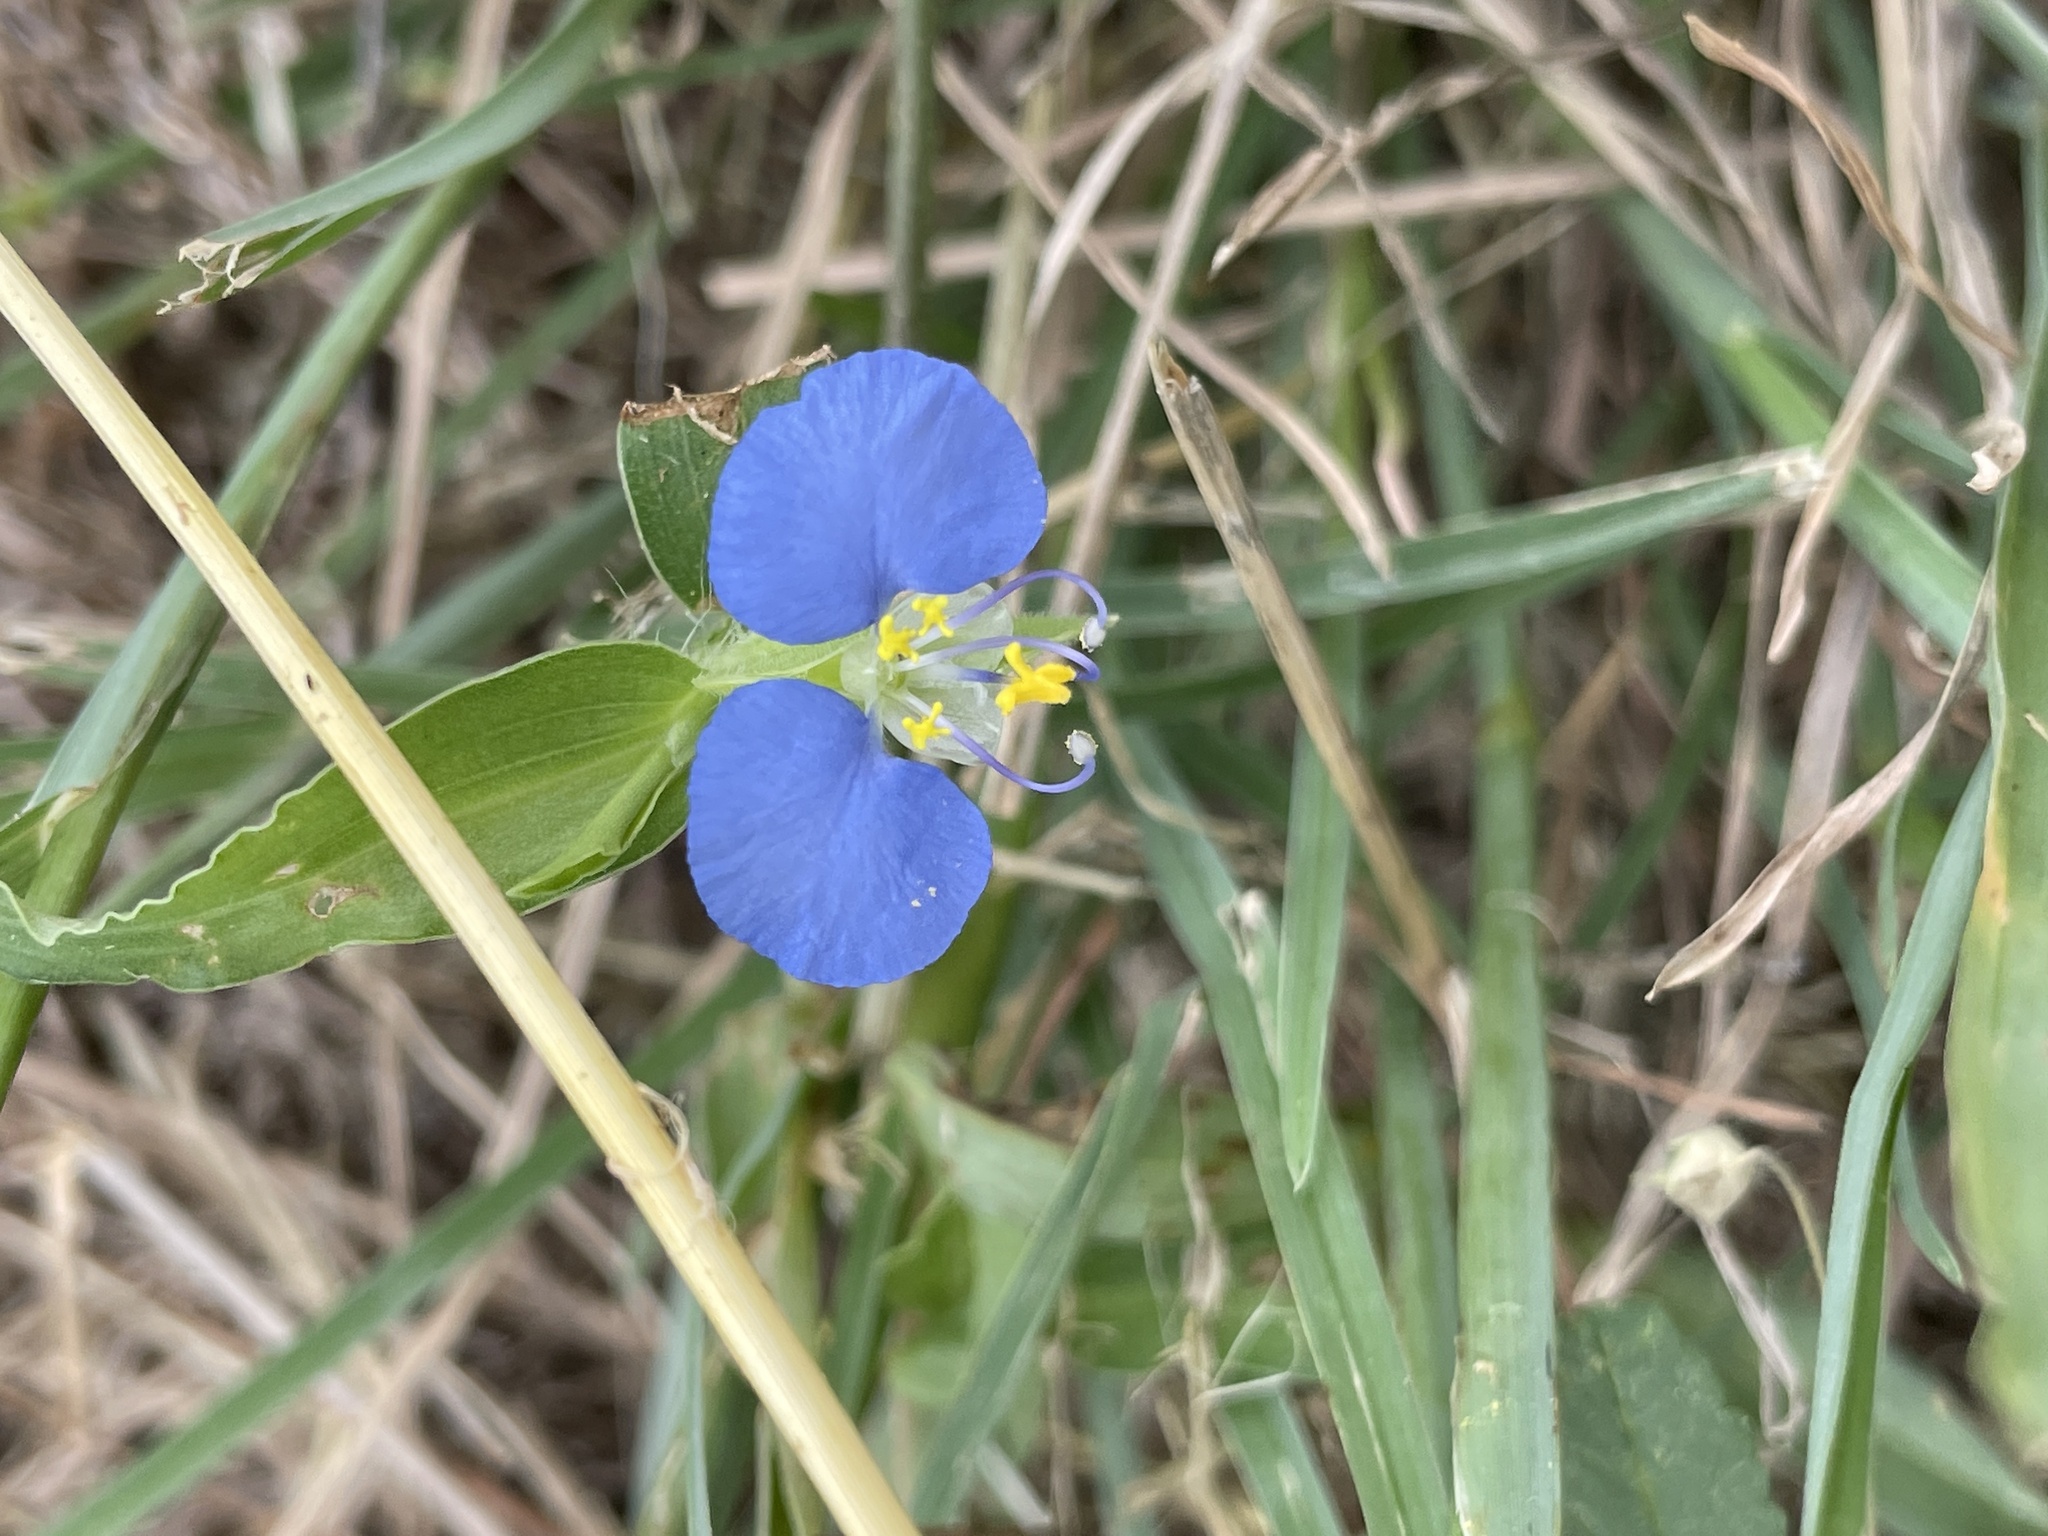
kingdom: Plantae
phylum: Tracheophyta
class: Liliopsida
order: Commelinales
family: Commelinaceae
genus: Commelina
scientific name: Commelina erecta
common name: Blousel blommetjie
